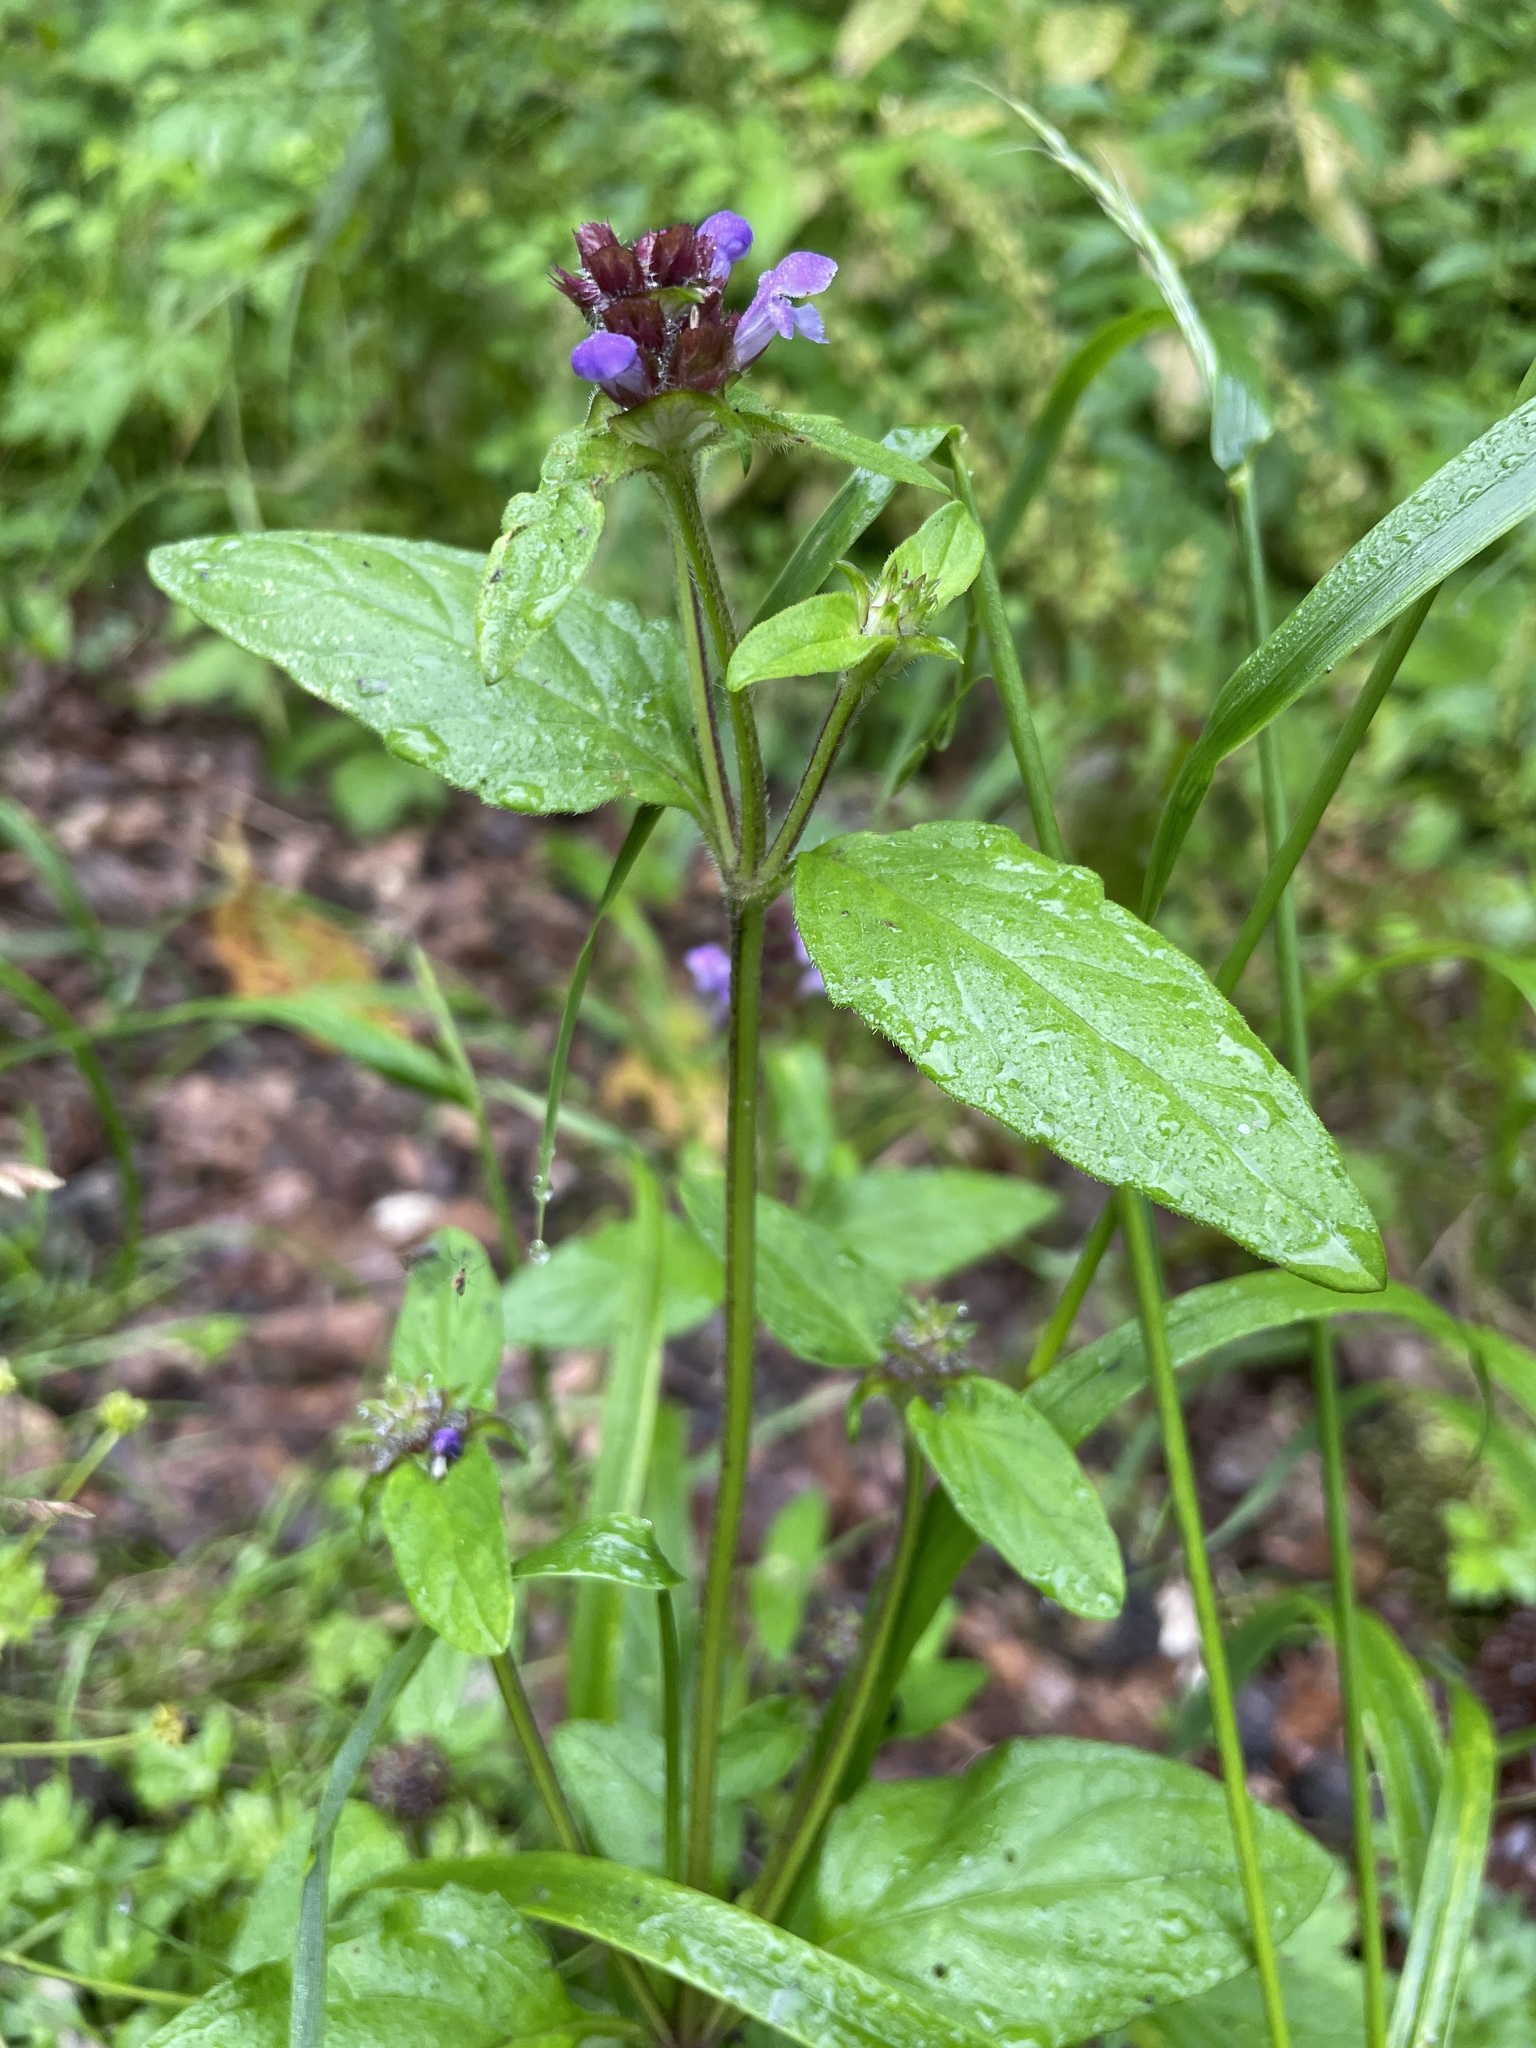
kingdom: Plantae
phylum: Tracheophyta
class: Magnoliopsida
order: Lamiales
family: Lamiaceae
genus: Prunella
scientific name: Prunella vulgaris
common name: Heal-all
